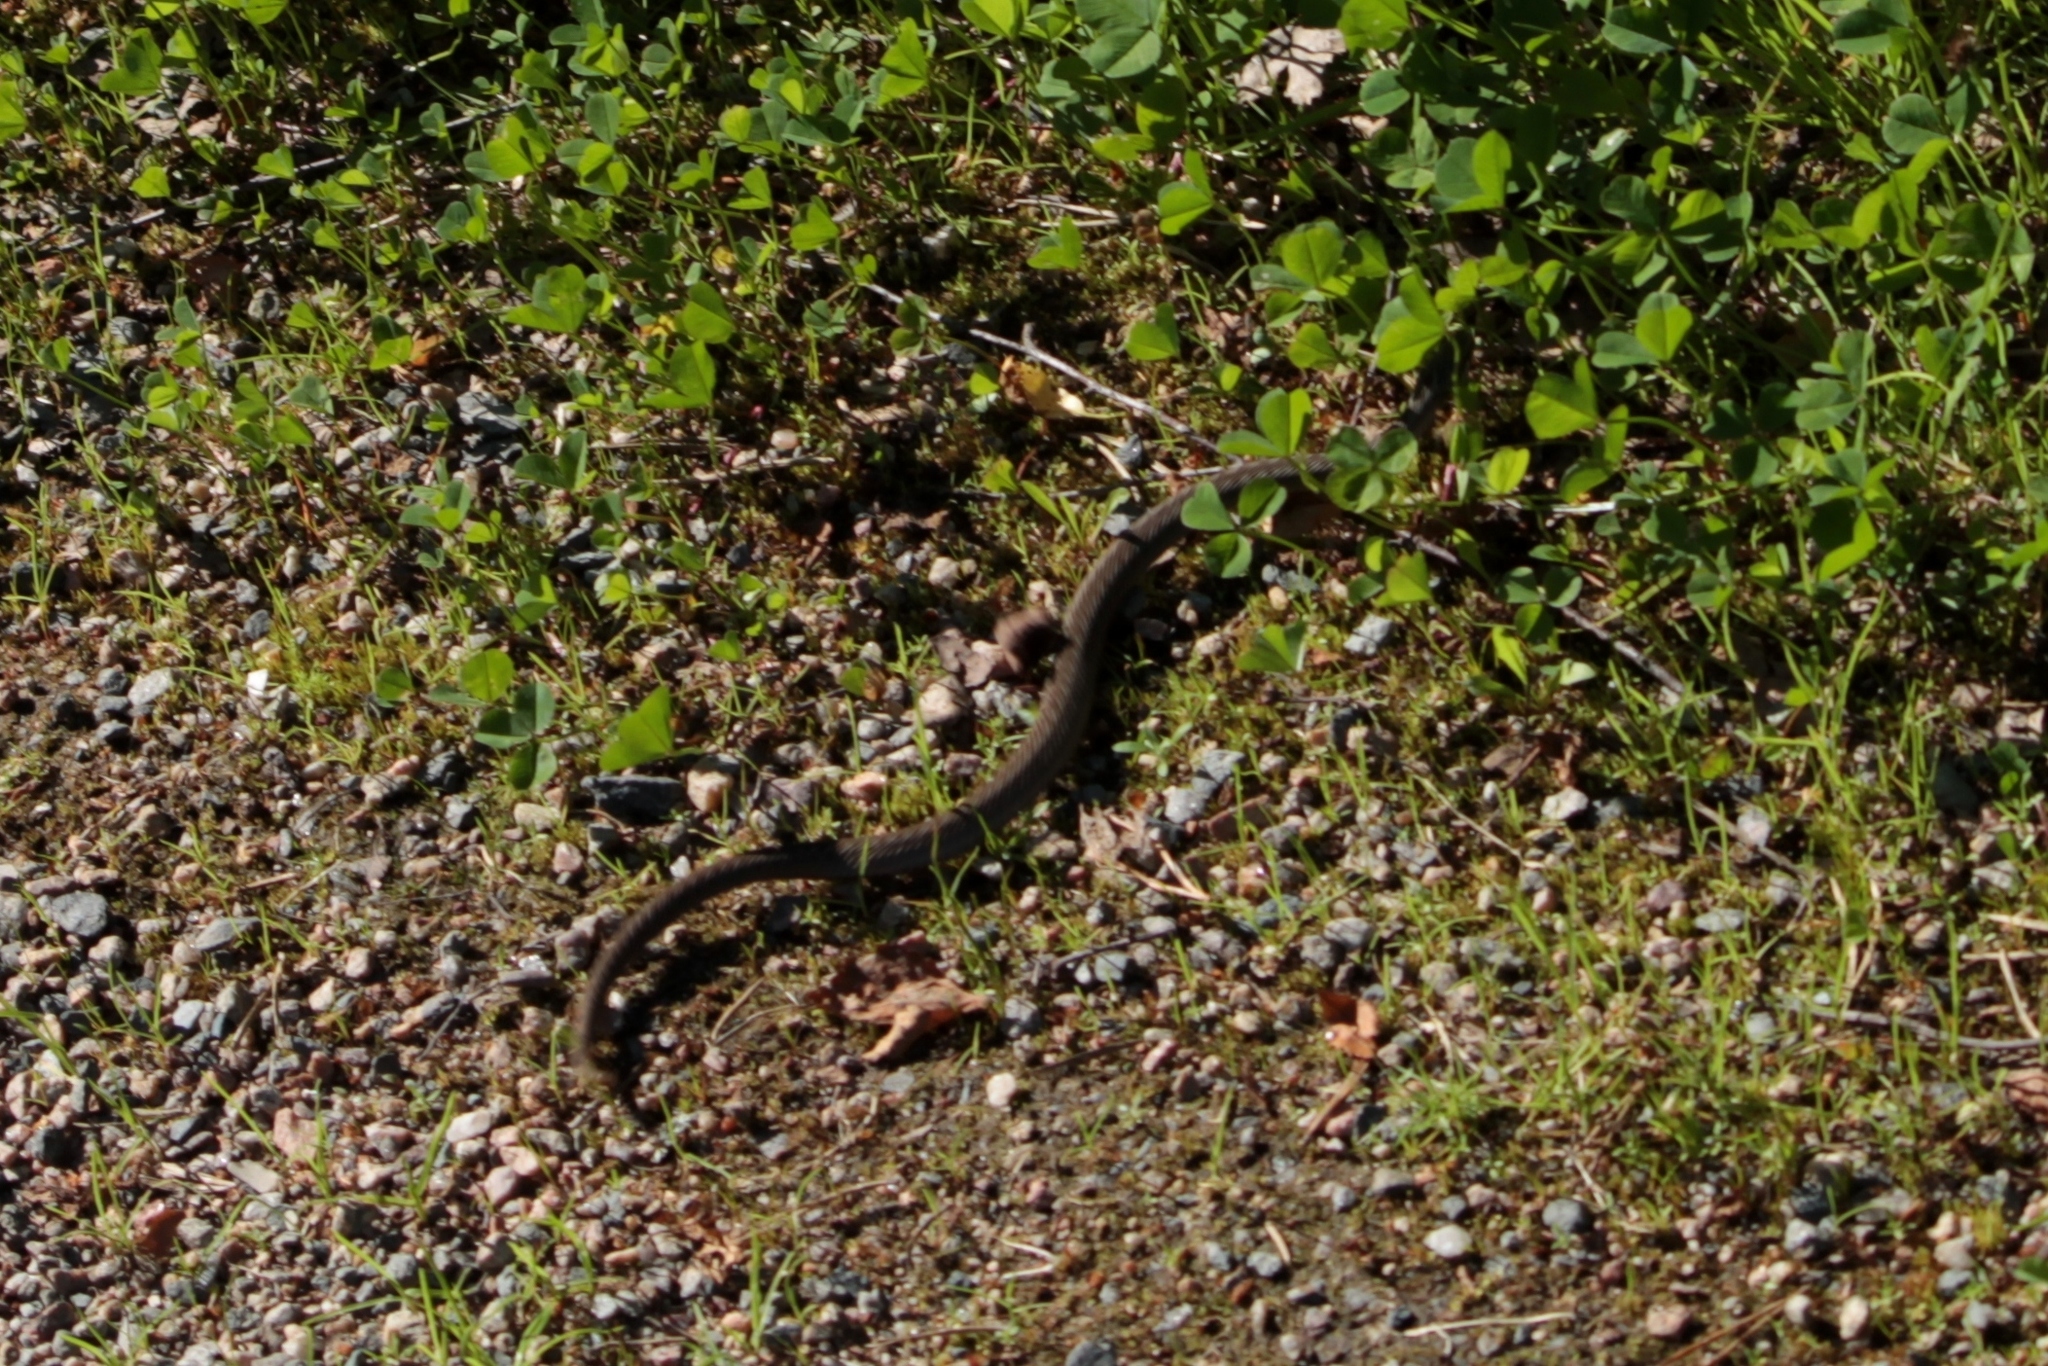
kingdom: Animalia
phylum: Chordata
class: Squamata
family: Viperidae
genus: Vipera
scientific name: Vipera berus
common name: Adder
